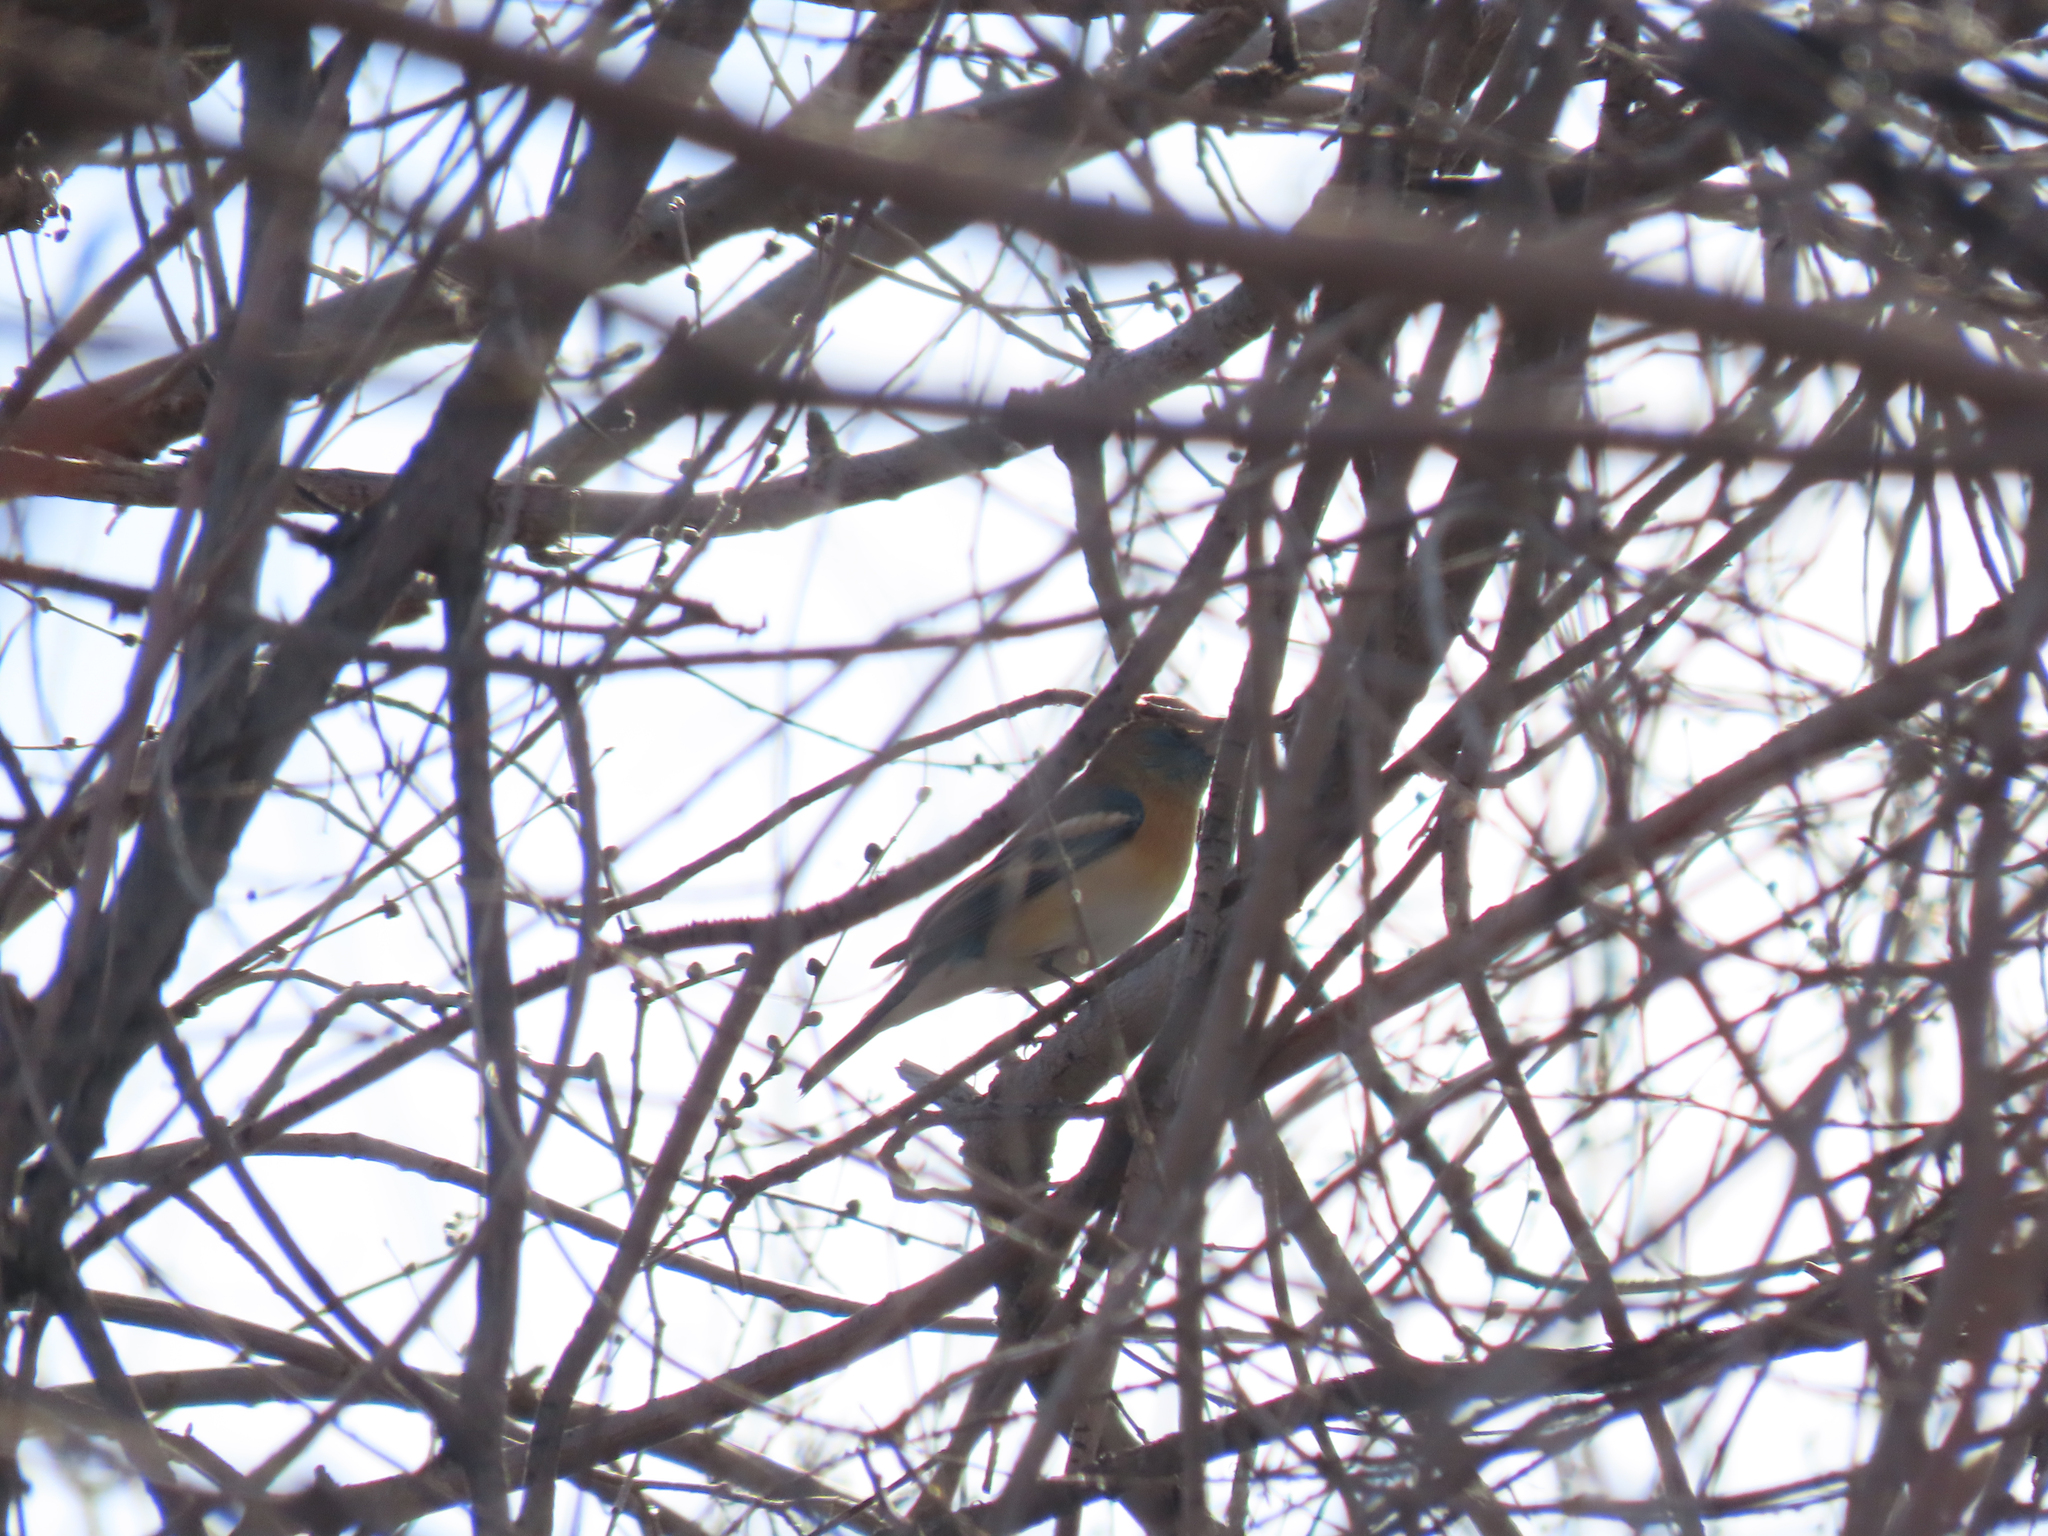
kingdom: Animalia
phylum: Chordata
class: Aves
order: Passeriformes
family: Cardinalidae
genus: Passerina
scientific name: Passerina amoena
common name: Lazuli bunting
